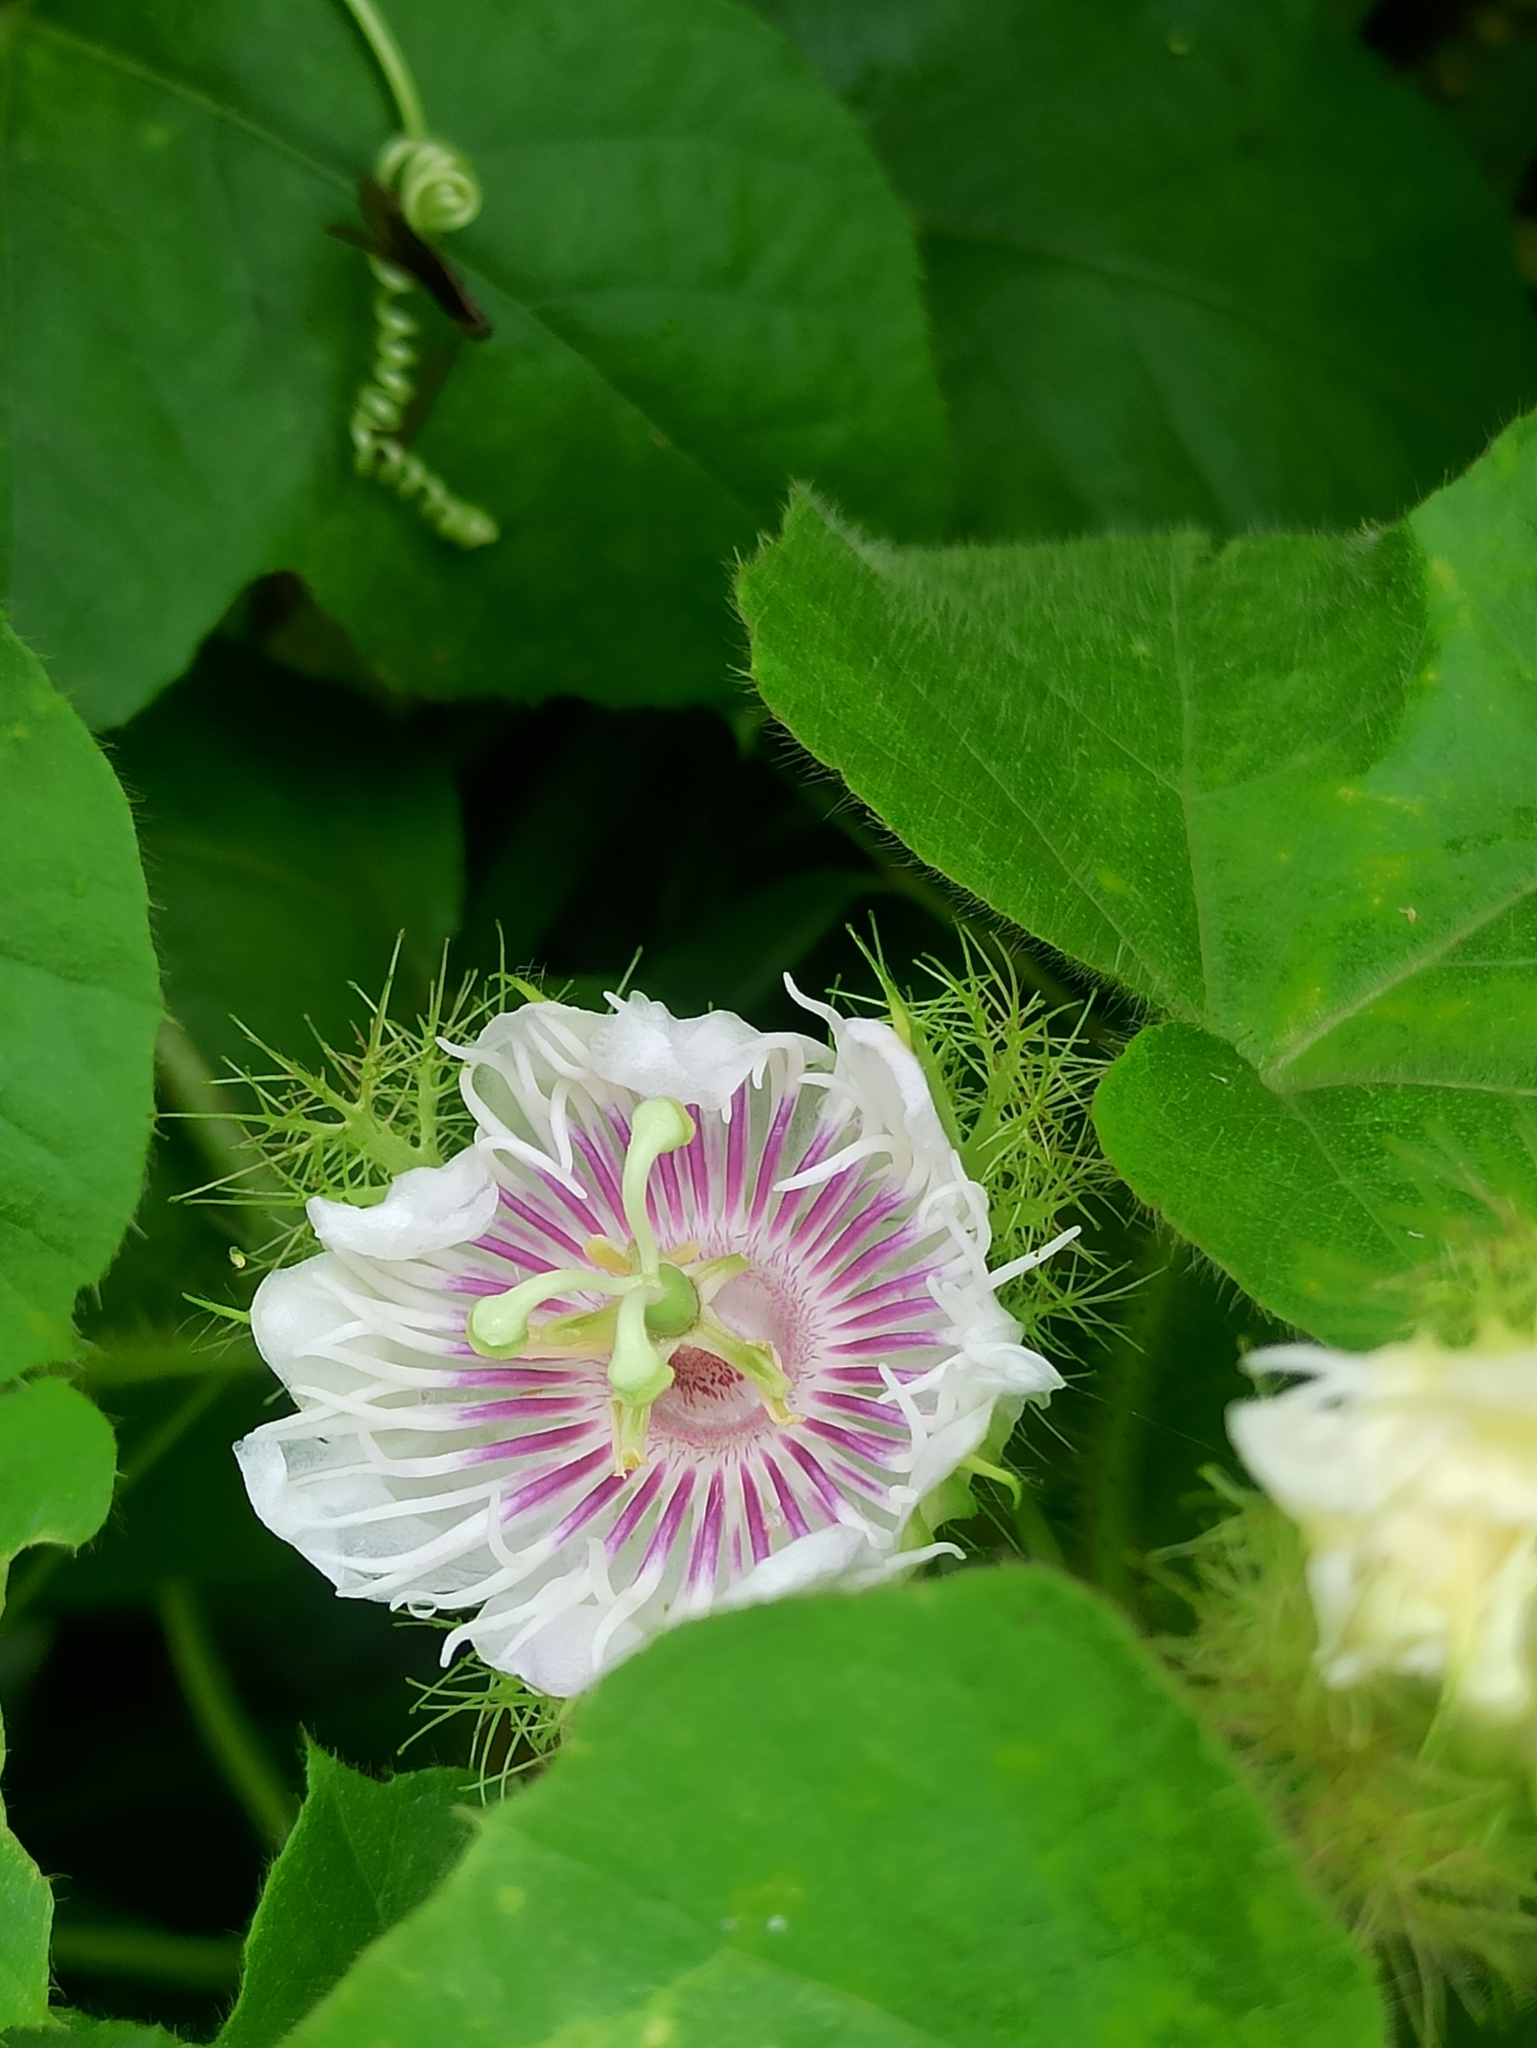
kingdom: Plantae
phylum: Tracheophyta
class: Magnoliopsida
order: Malpighiales
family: Passifloraceae
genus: Passiflora
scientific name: Passiflora vesicaria
